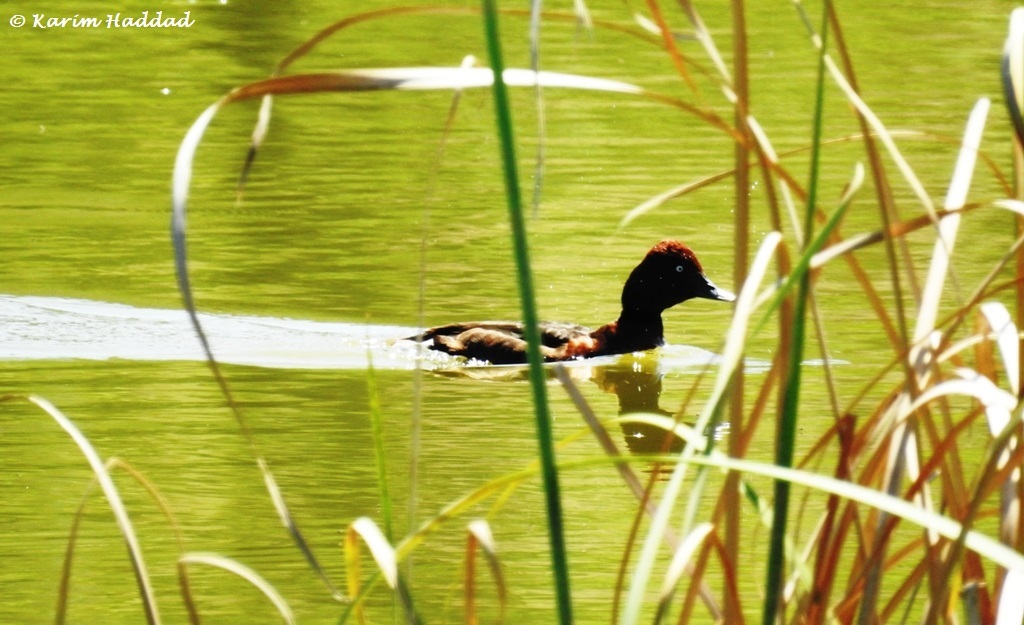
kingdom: Animalia
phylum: Chordata
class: Aves
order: Anseriformes
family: Anatidae
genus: Aythya
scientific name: Aythya nyroca
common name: Ferruginous duck
